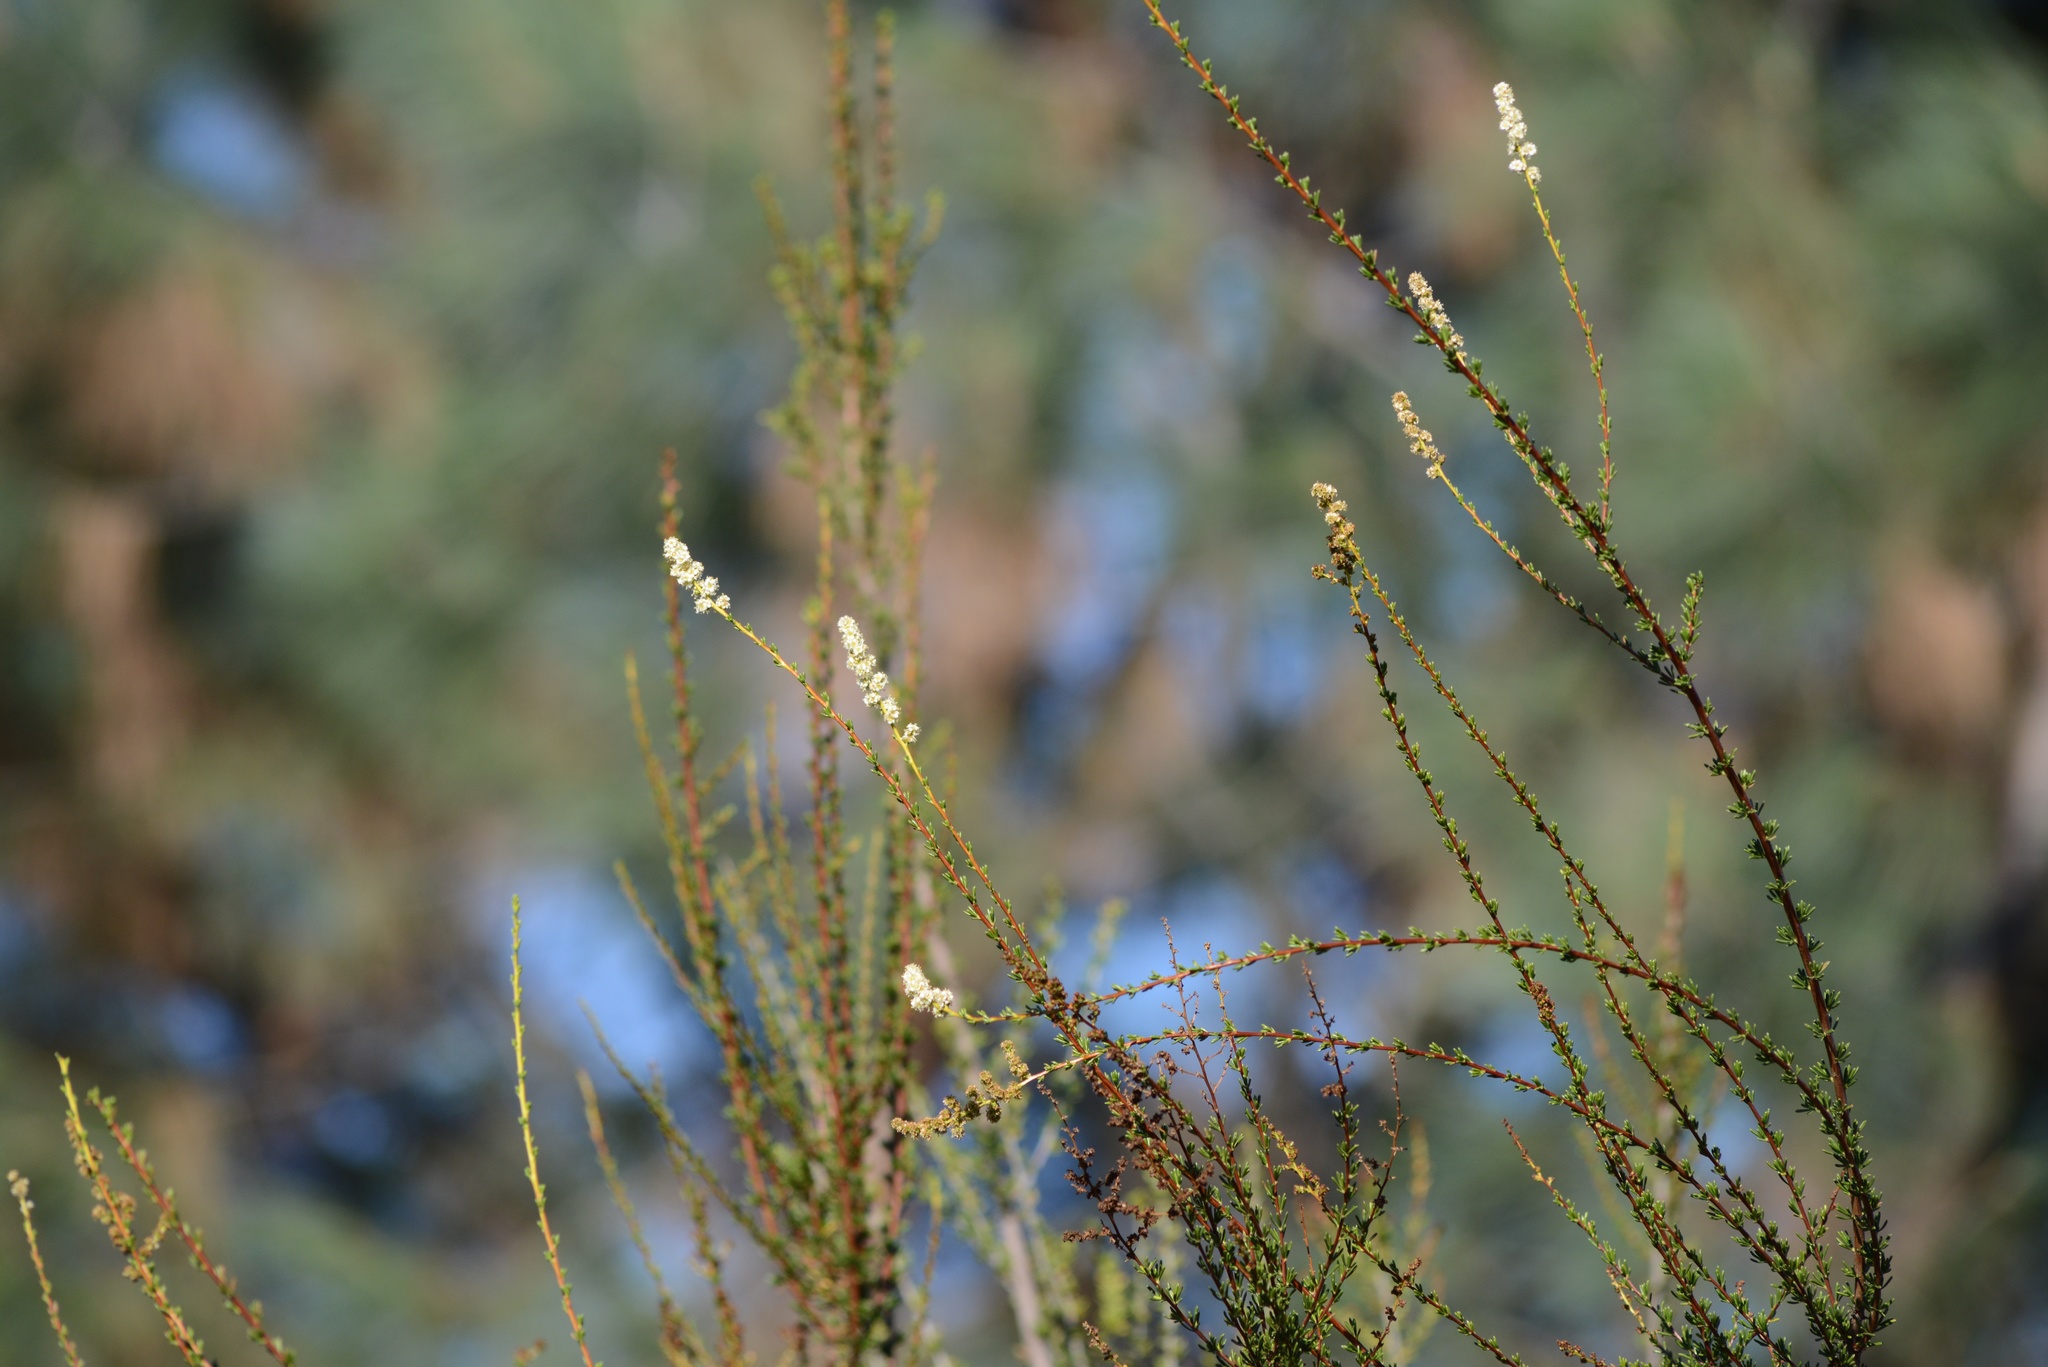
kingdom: Plantae
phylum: Tracheophyta
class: Magnoliopsida
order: Rosales
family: Rosaceae
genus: Adenostoma
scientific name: Adenostoma fasciculatum
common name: Chamise
